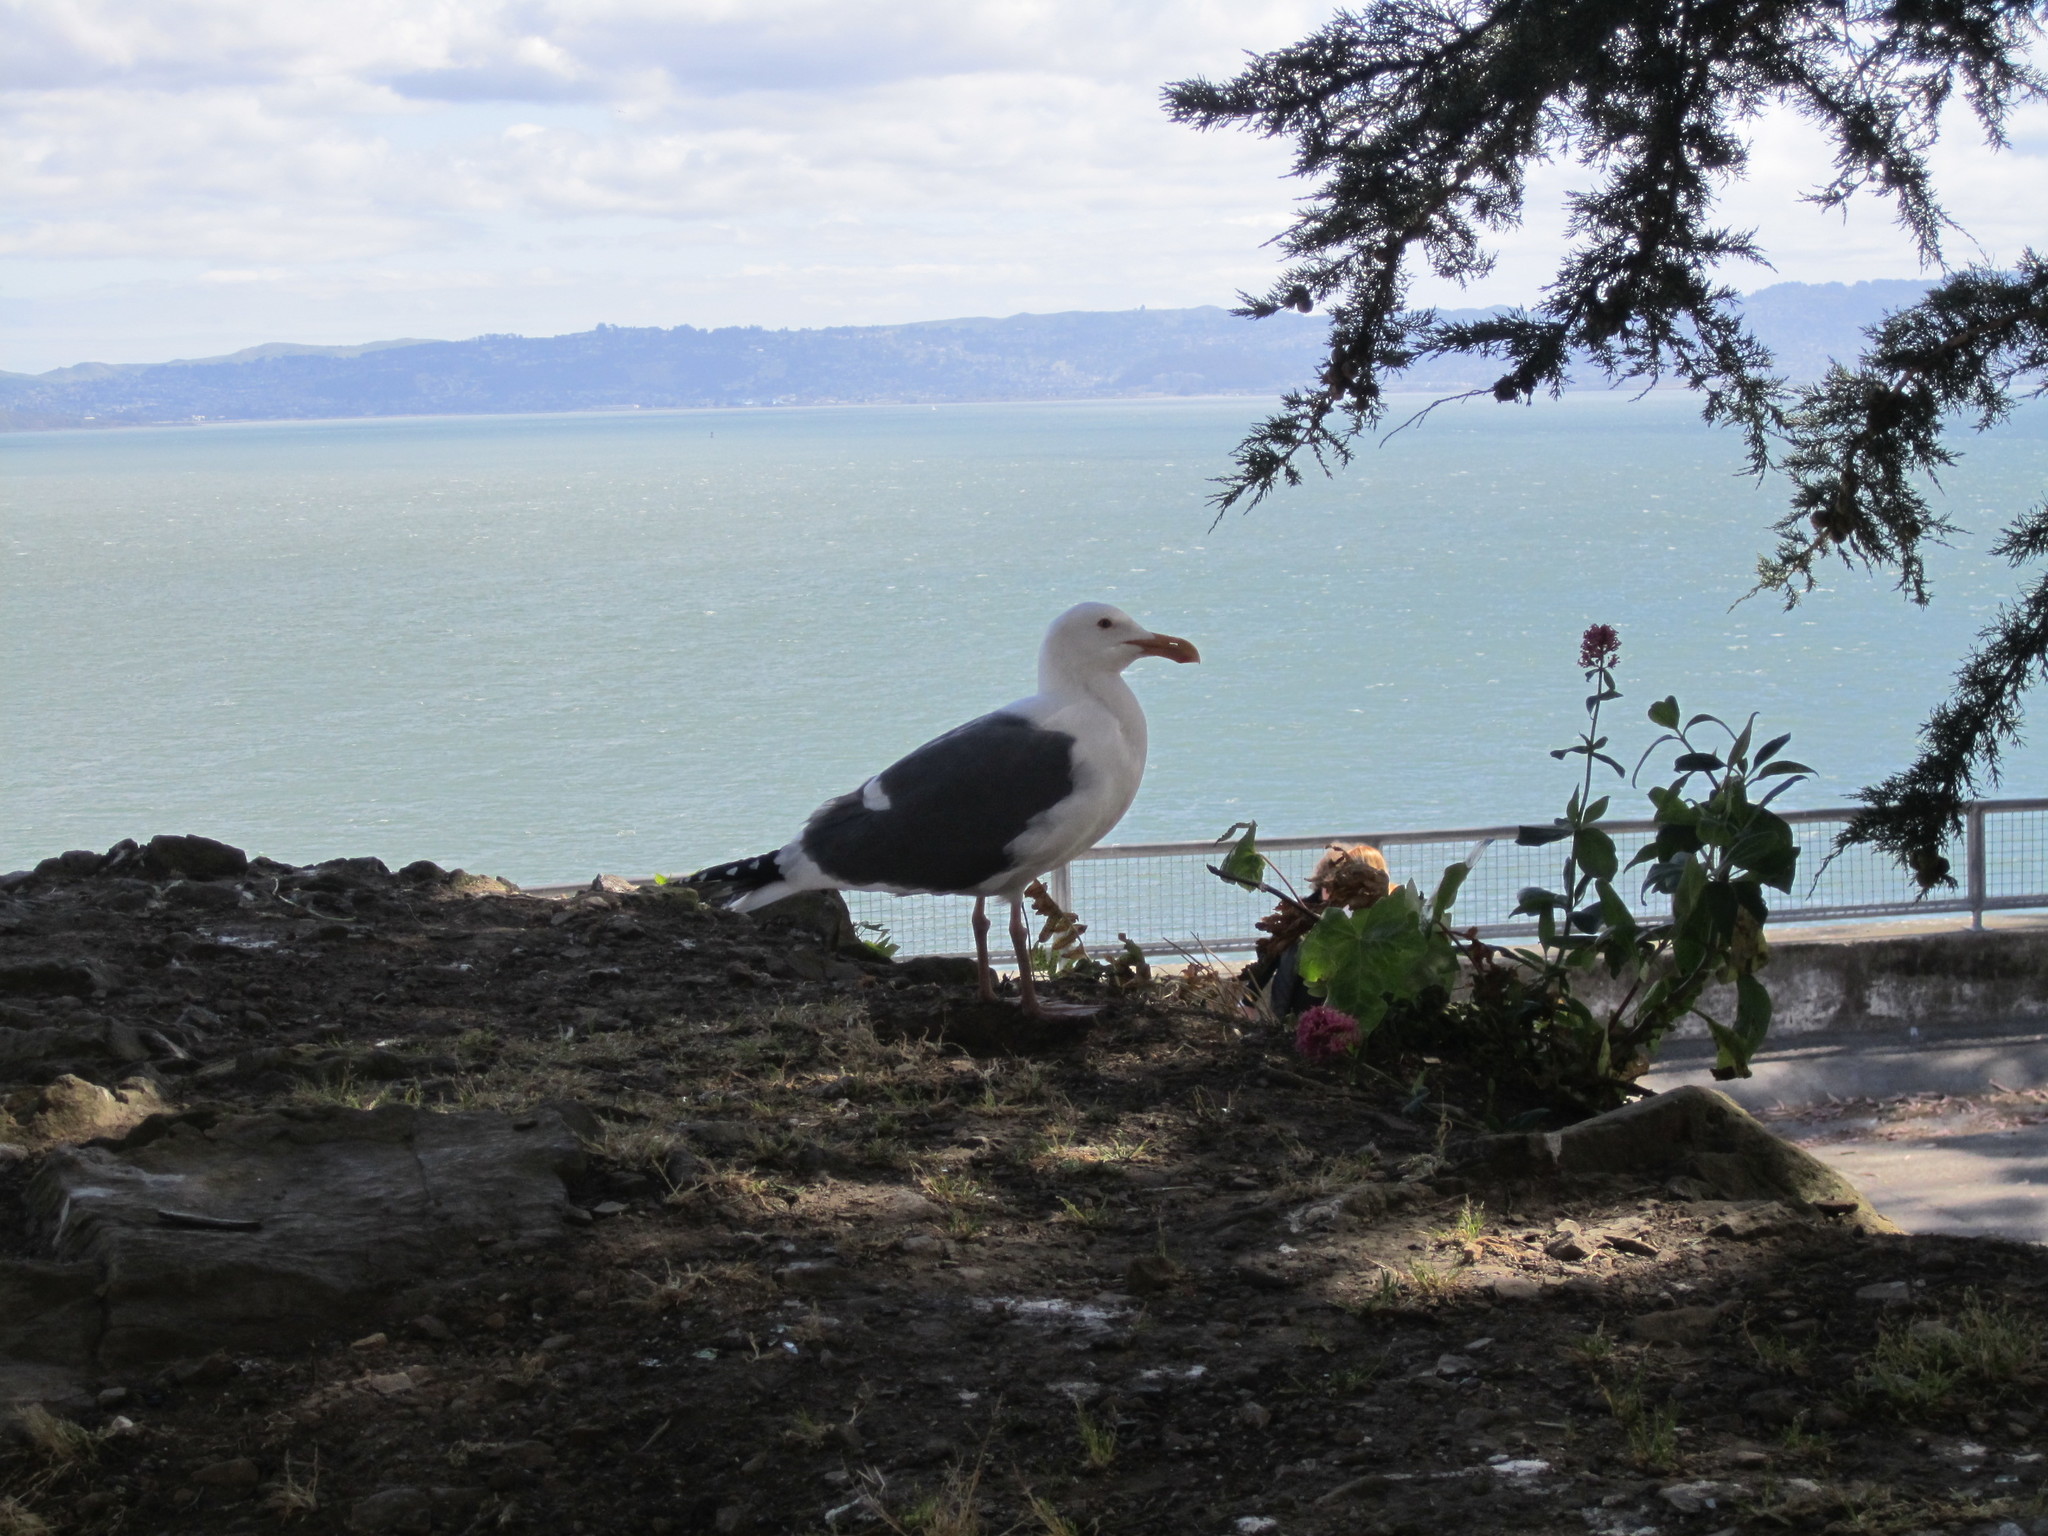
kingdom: Animalia
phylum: Chordata
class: Aves
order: Charadriiformes
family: Laridae
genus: Larus
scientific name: Larus occidentalis
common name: Western gull
